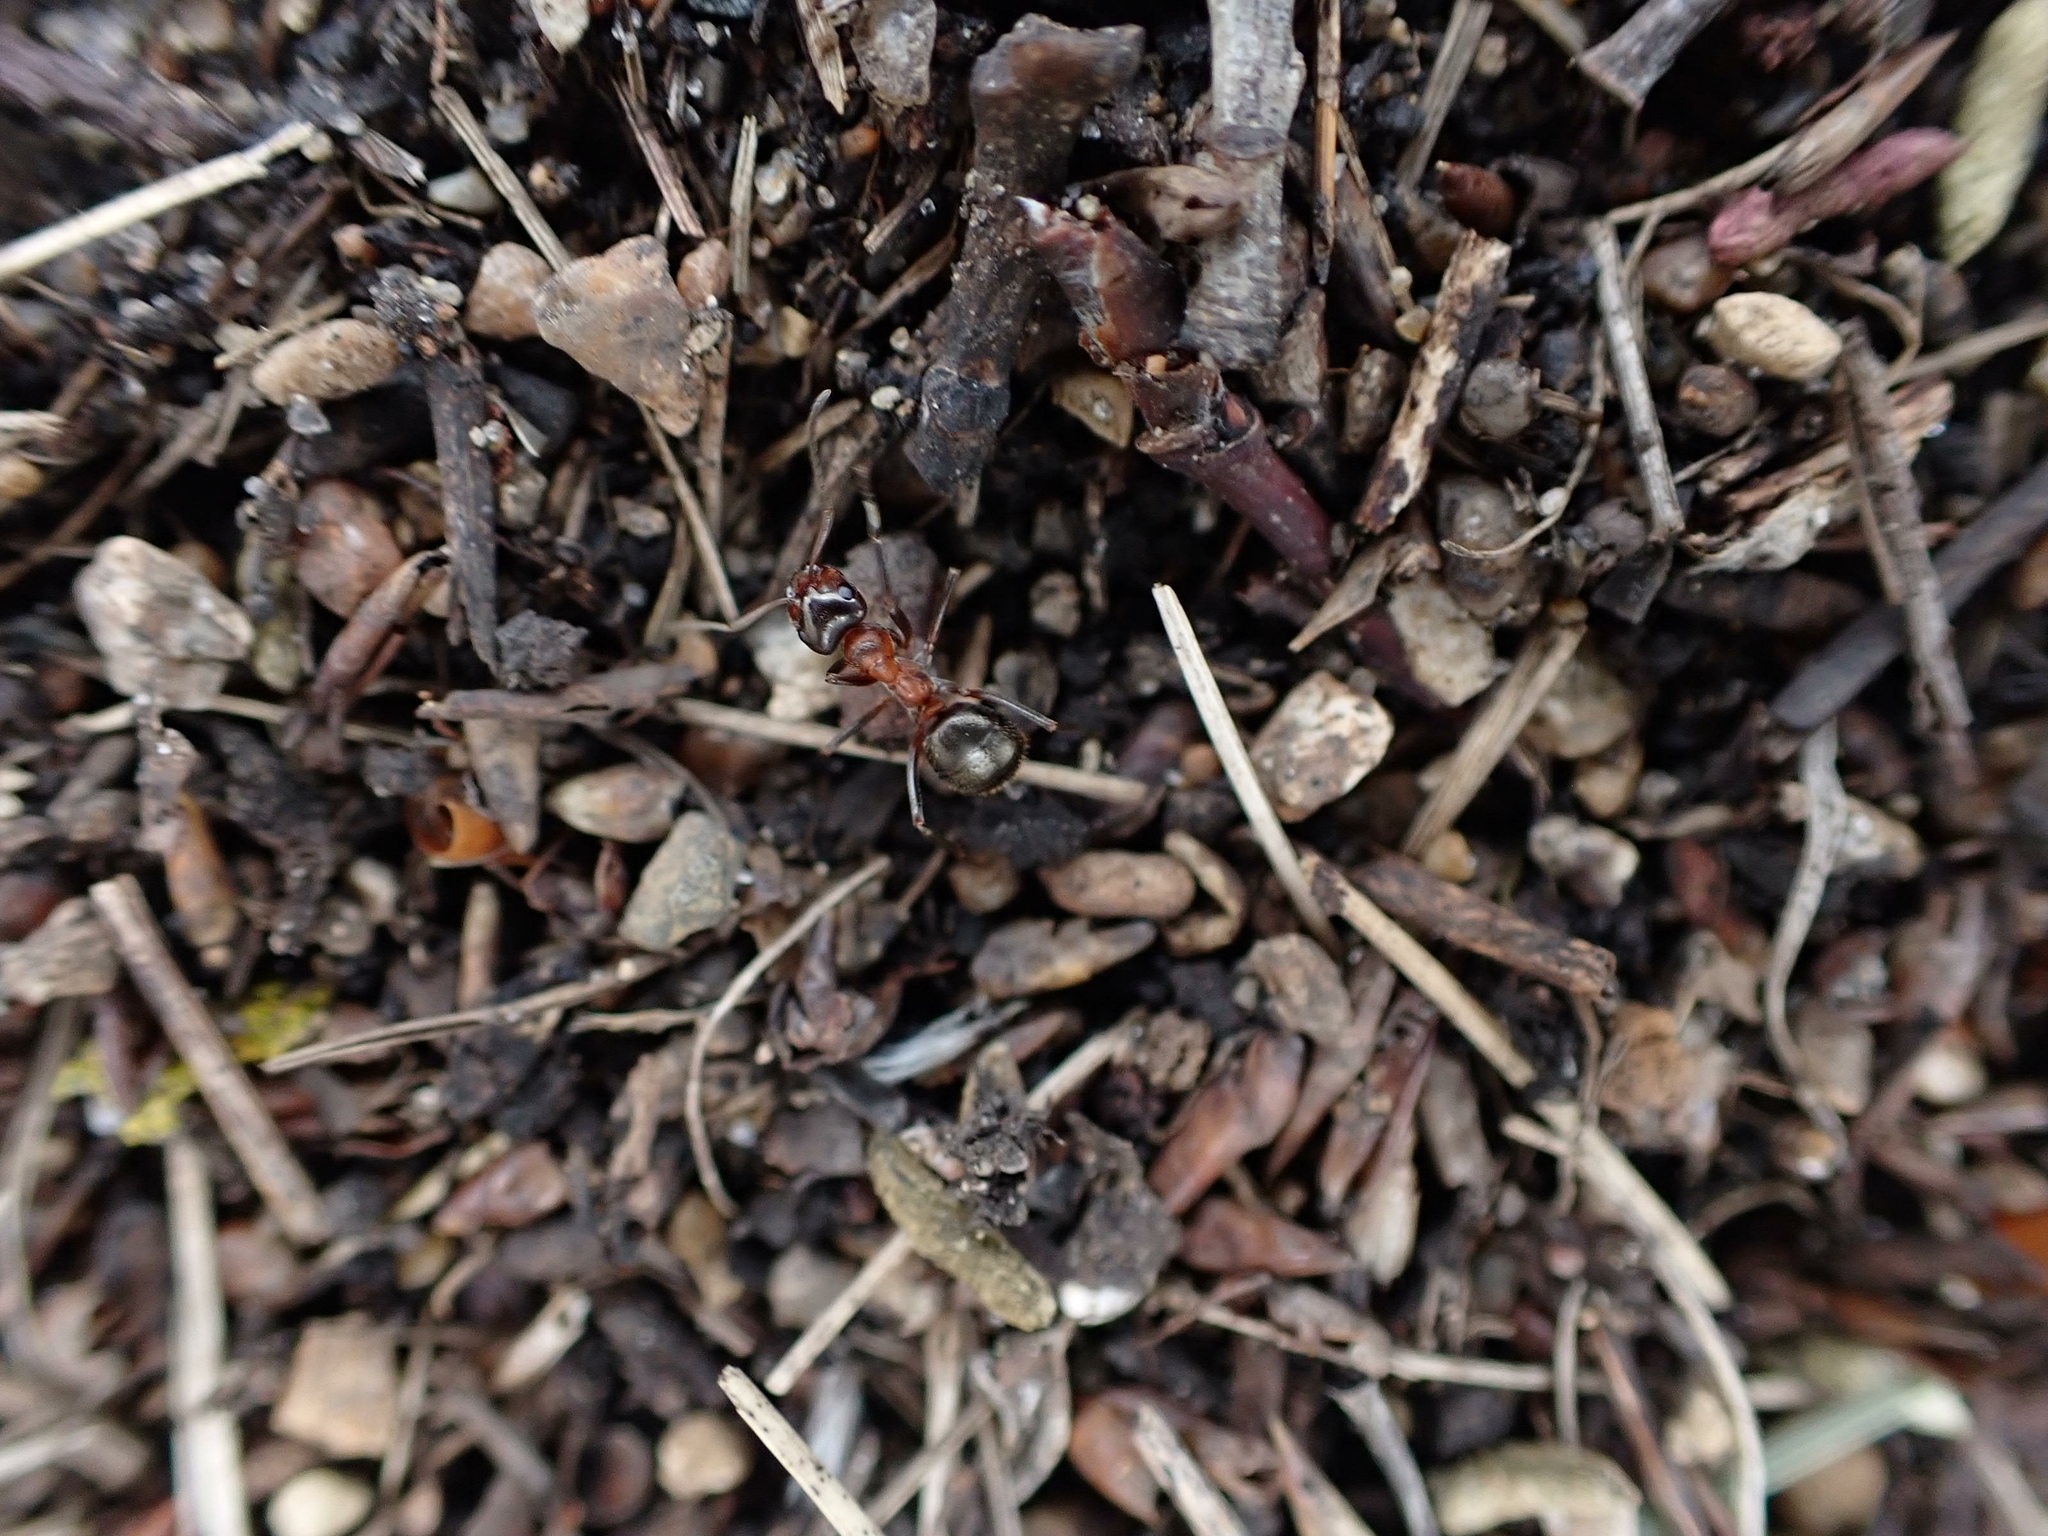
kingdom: Animalia
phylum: Arthropoda
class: Insecta
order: Hymenoptera
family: Formicidae
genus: Formica
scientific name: Formica ulkei
